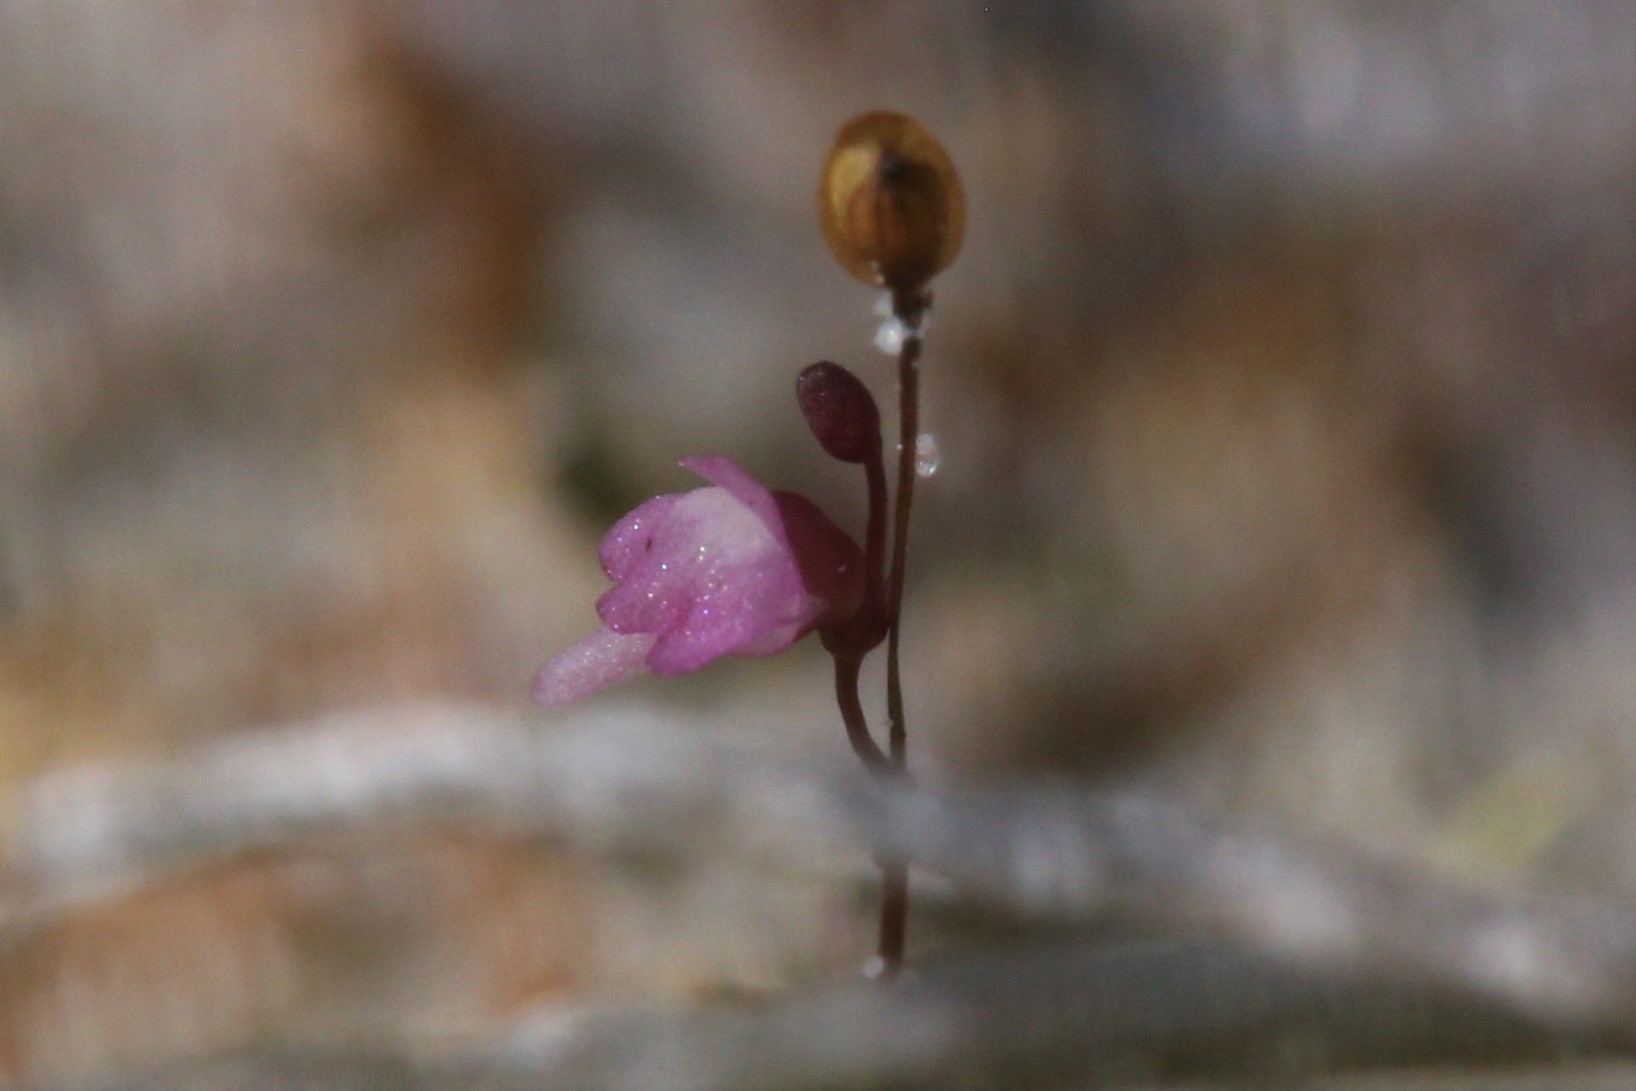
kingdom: Plantae
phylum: Tracheophyta
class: Magnoliopsida
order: Lamiales
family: Lentibulariaceae
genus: Utricularia
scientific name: Utricularia minutissima
